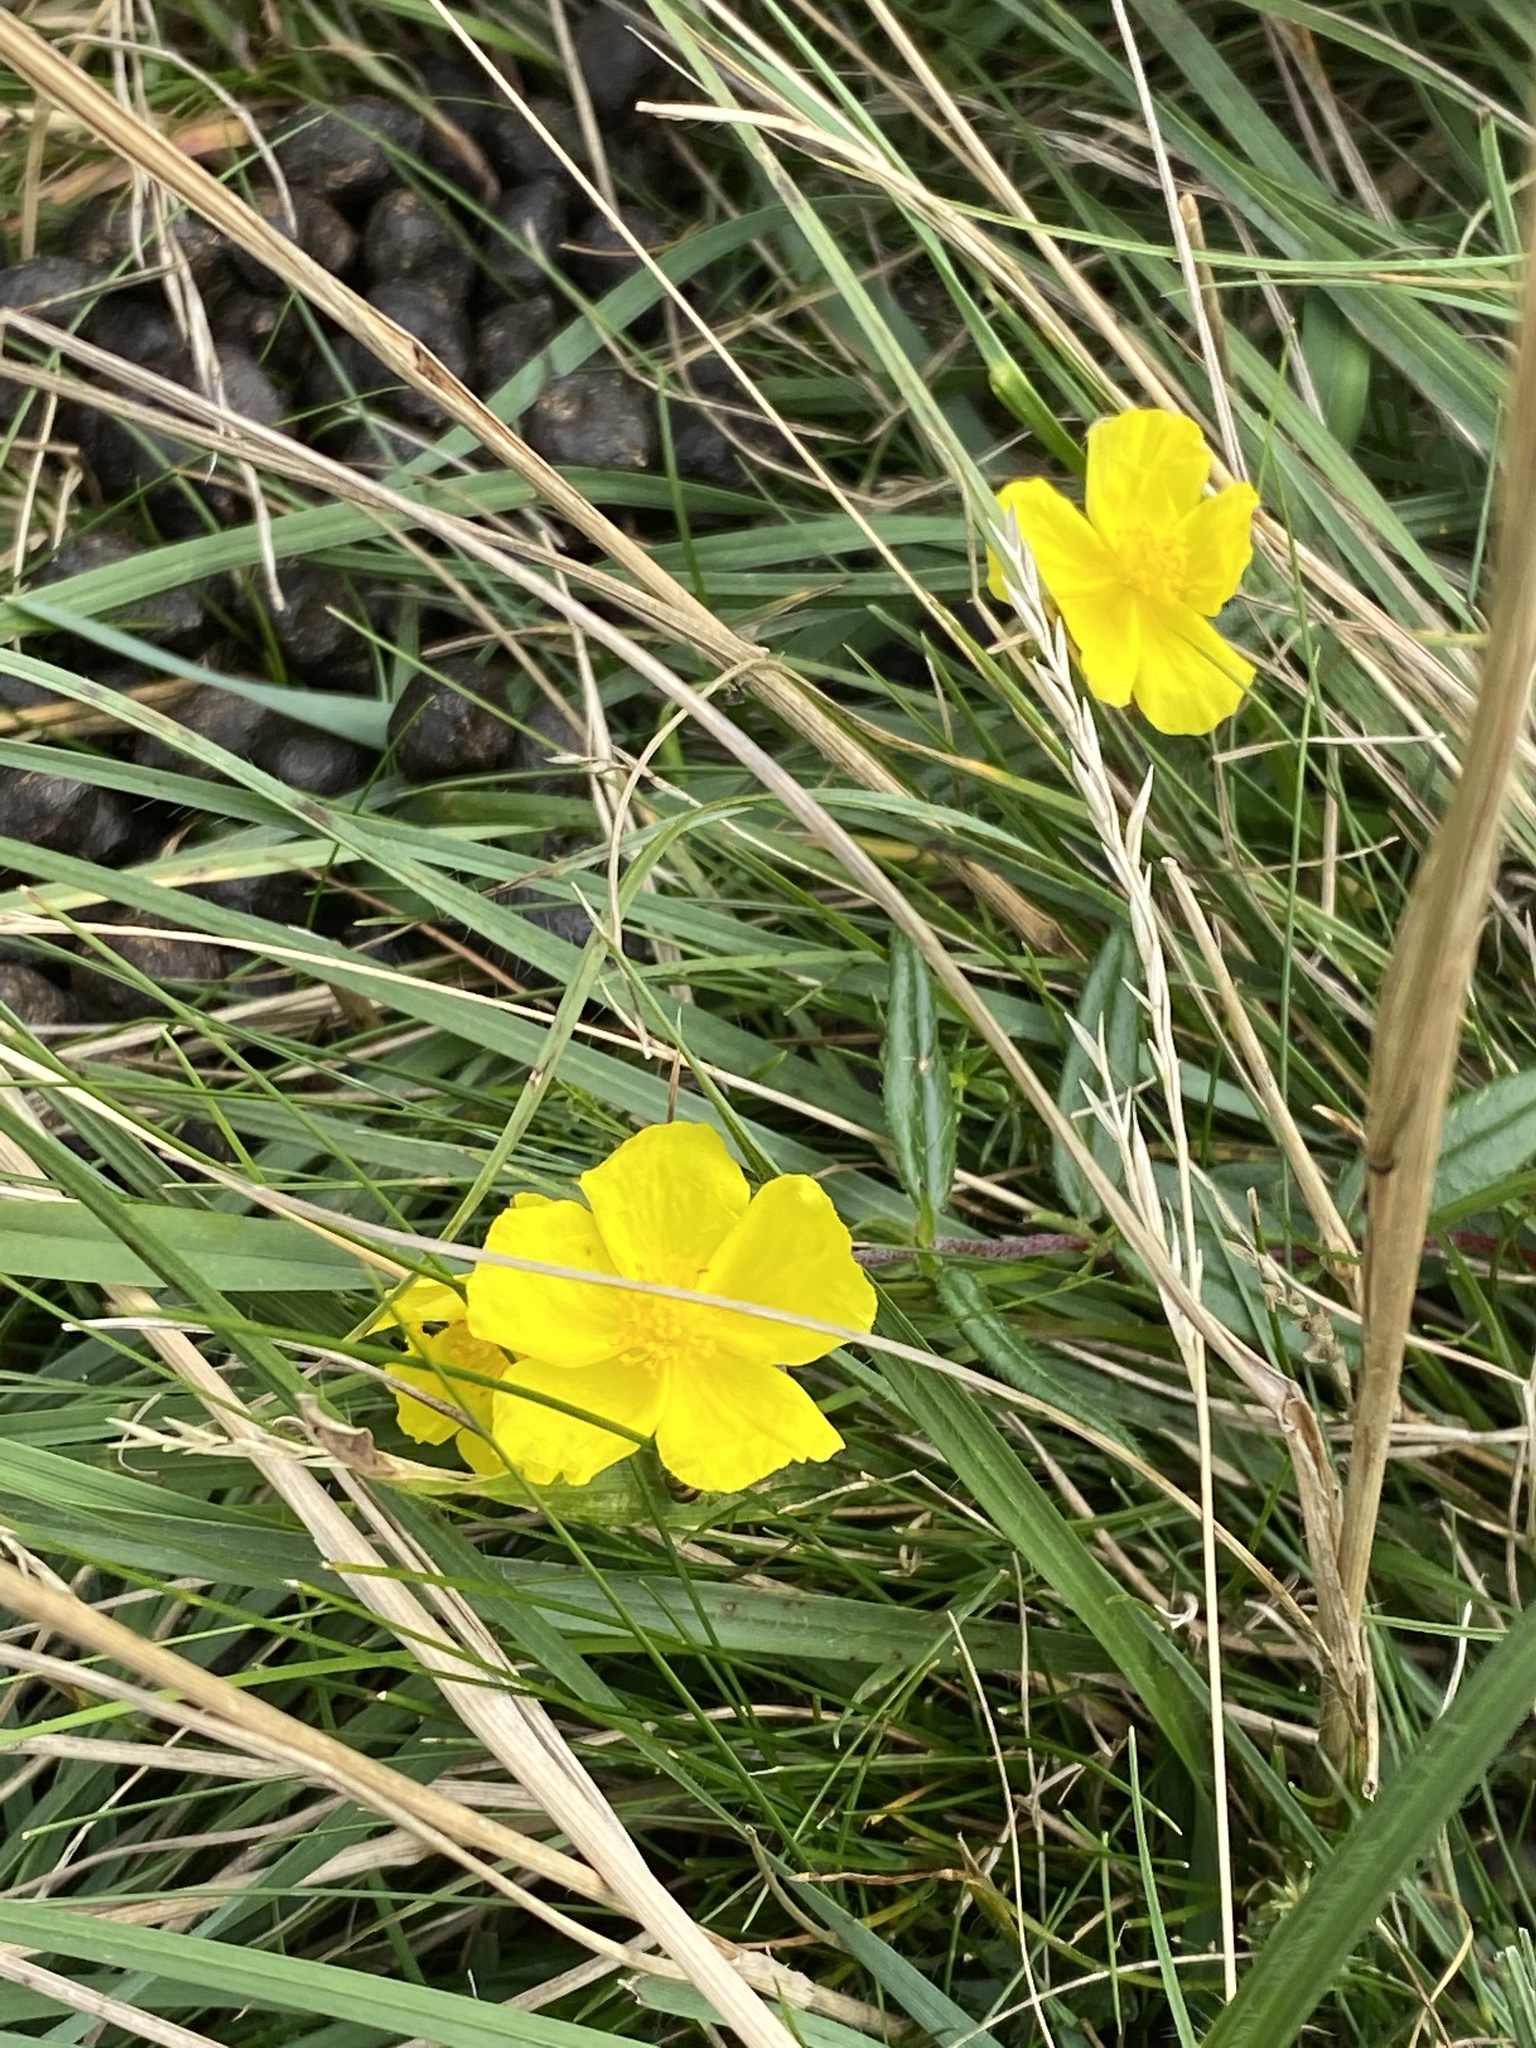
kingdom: Plantae
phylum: Tracheophyta
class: Magnoliopsida
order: Malvales
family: Cistaceae
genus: Helianthemum
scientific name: Helianthemum nummularium
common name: Common rock-rose
